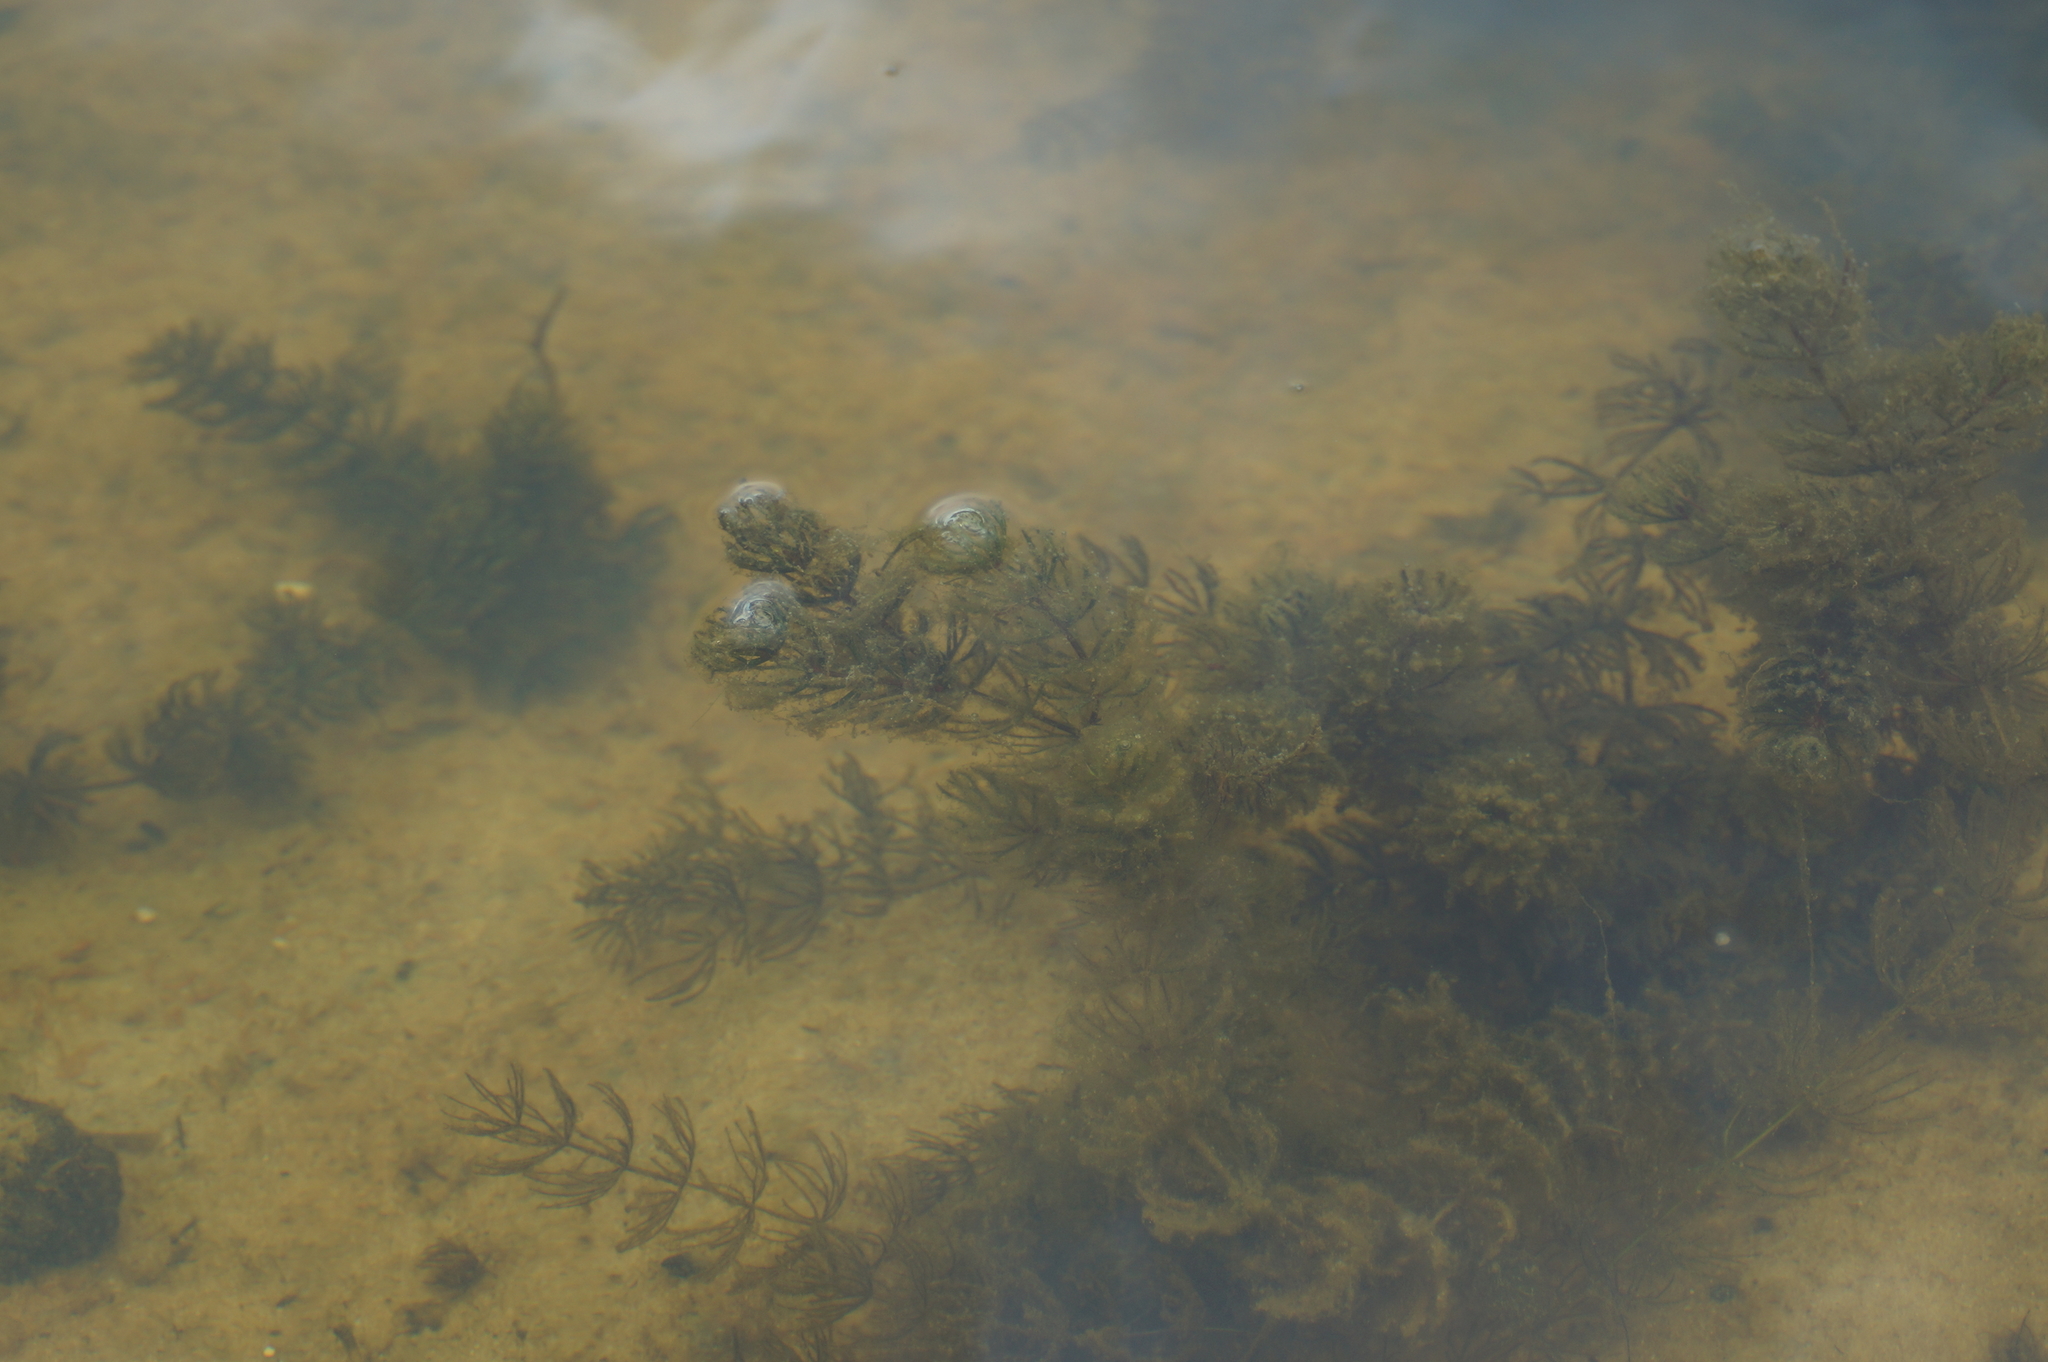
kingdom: Plantae
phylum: Tracheophyta
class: Magnoliopsida
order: Ceratophyllales
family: Ceratophyllaceae
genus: Ceratophyllum
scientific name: Ceratophyllum demersum
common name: Rigid hornwort
